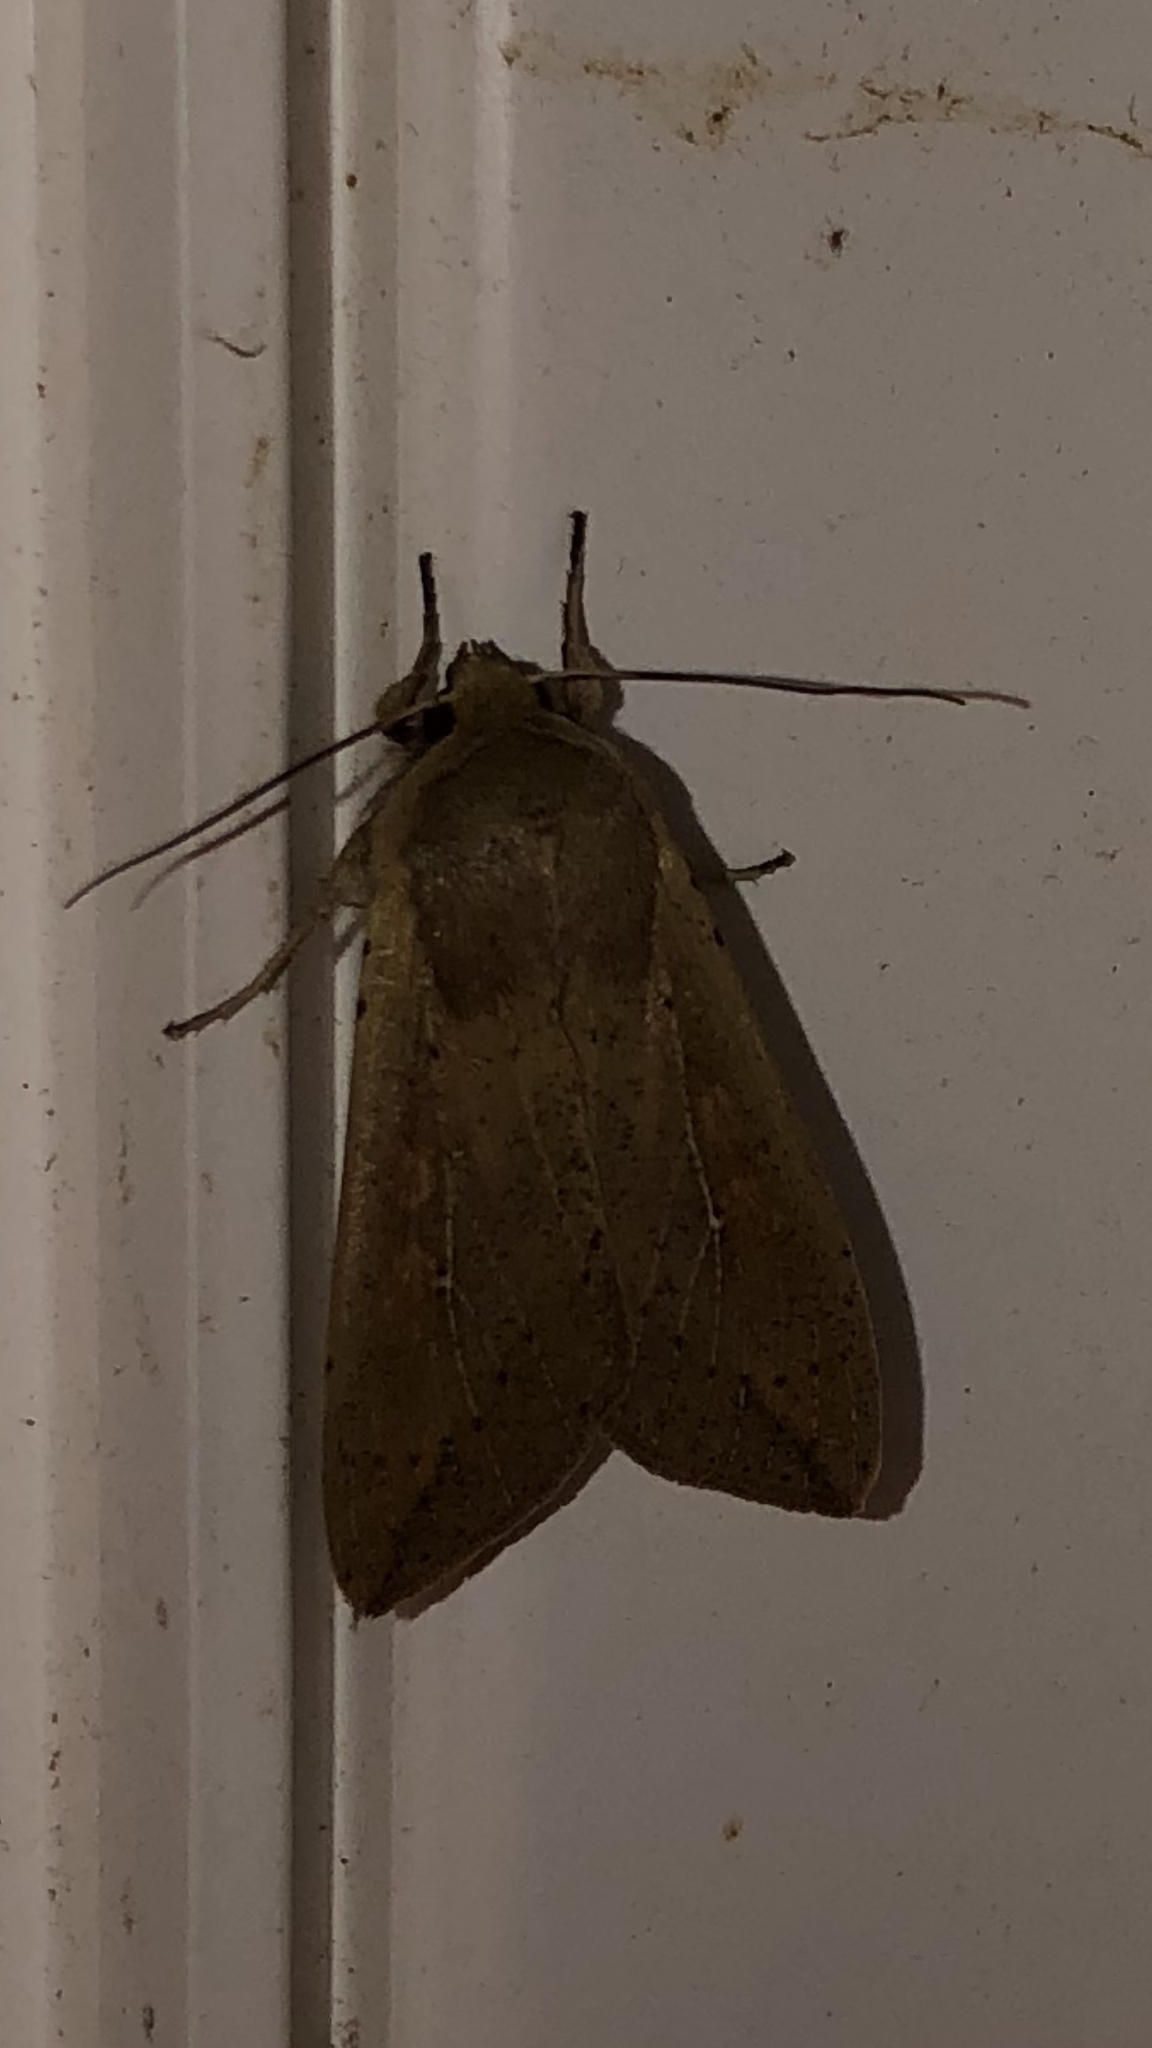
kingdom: Animalia
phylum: Arthropoda
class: Insecta
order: Lepidoptera
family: Noctuidae
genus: Mythimna
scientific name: Mythimna unipuncta
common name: White-speck
